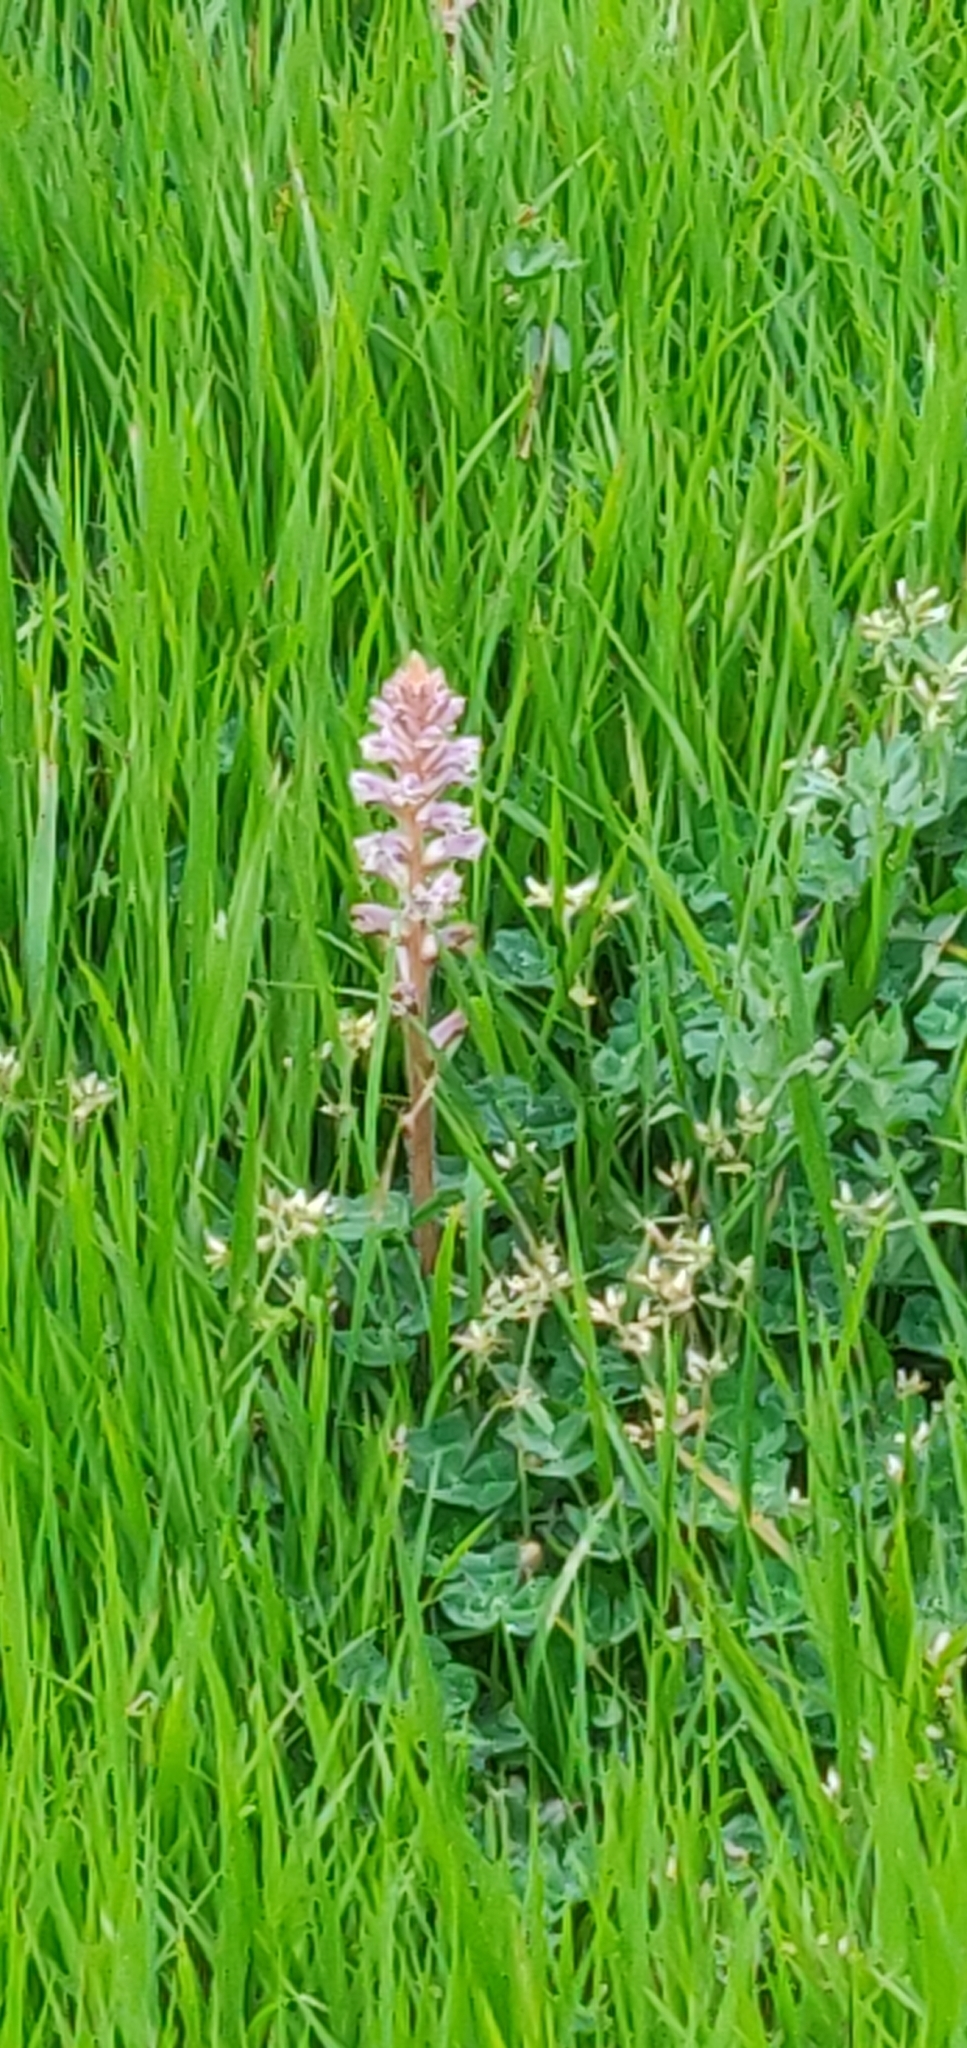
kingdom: Plantae
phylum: Tracheophyta
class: Magnoliopsida
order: Lamiales
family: Orobanchaceae
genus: Orobanche
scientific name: Orobanche minor
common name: Common broomrape
